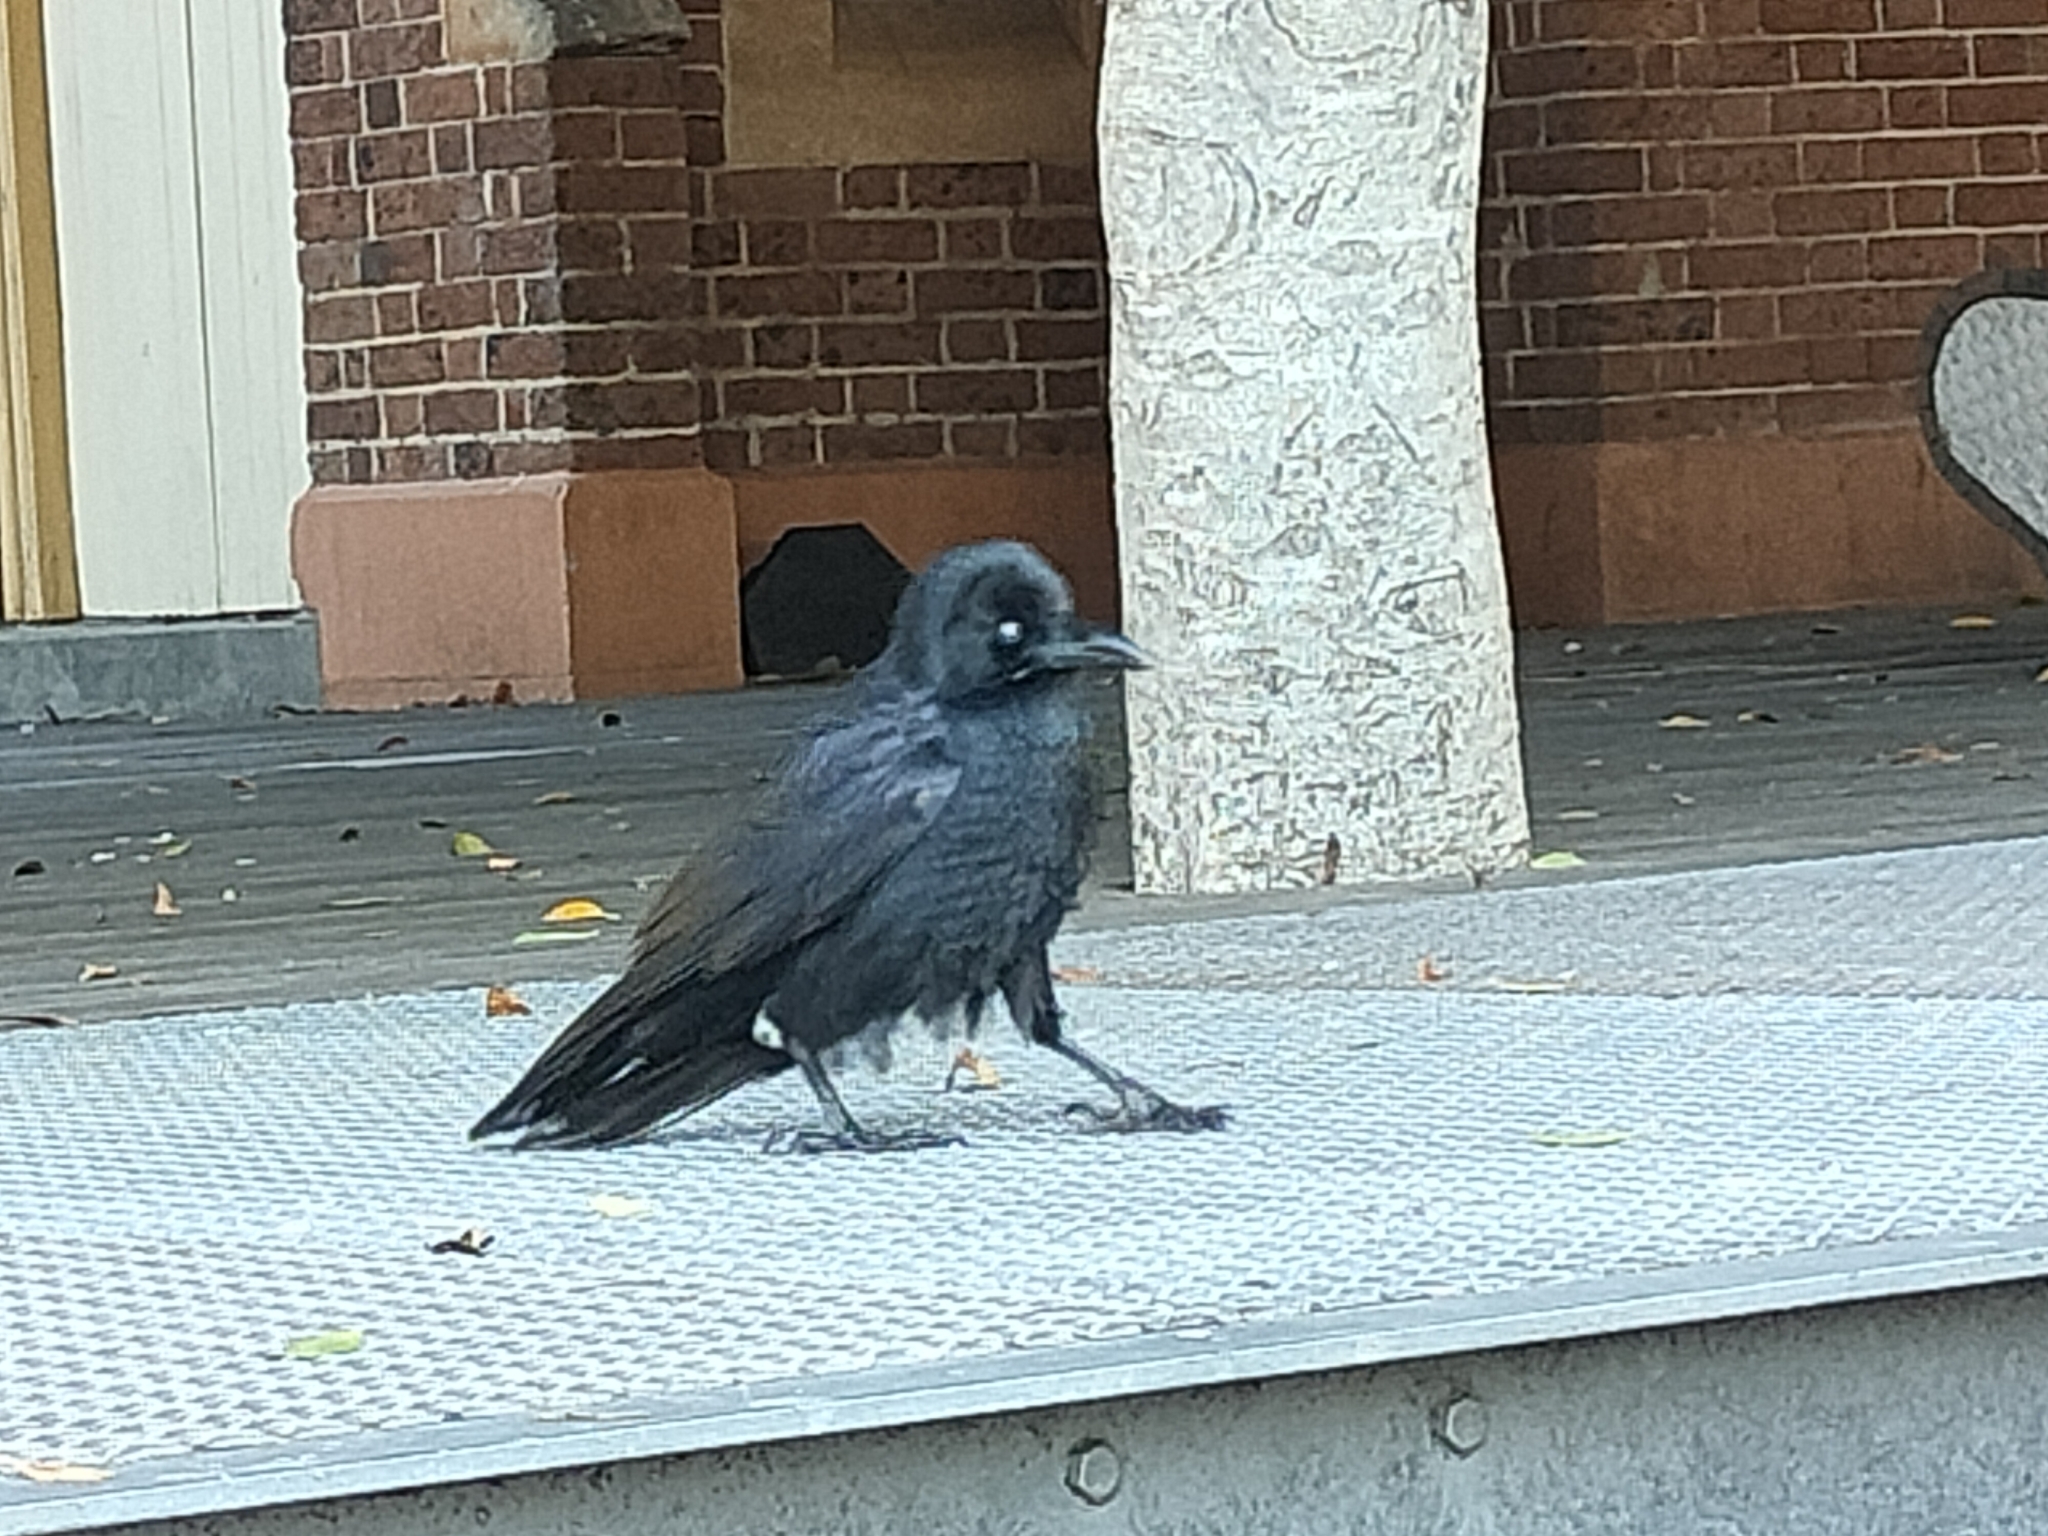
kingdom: Animalia
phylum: Chordata
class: Aves
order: Passeriformes
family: Corvidae
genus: Corvus
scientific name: Corvus coronoides
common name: Australian raven
